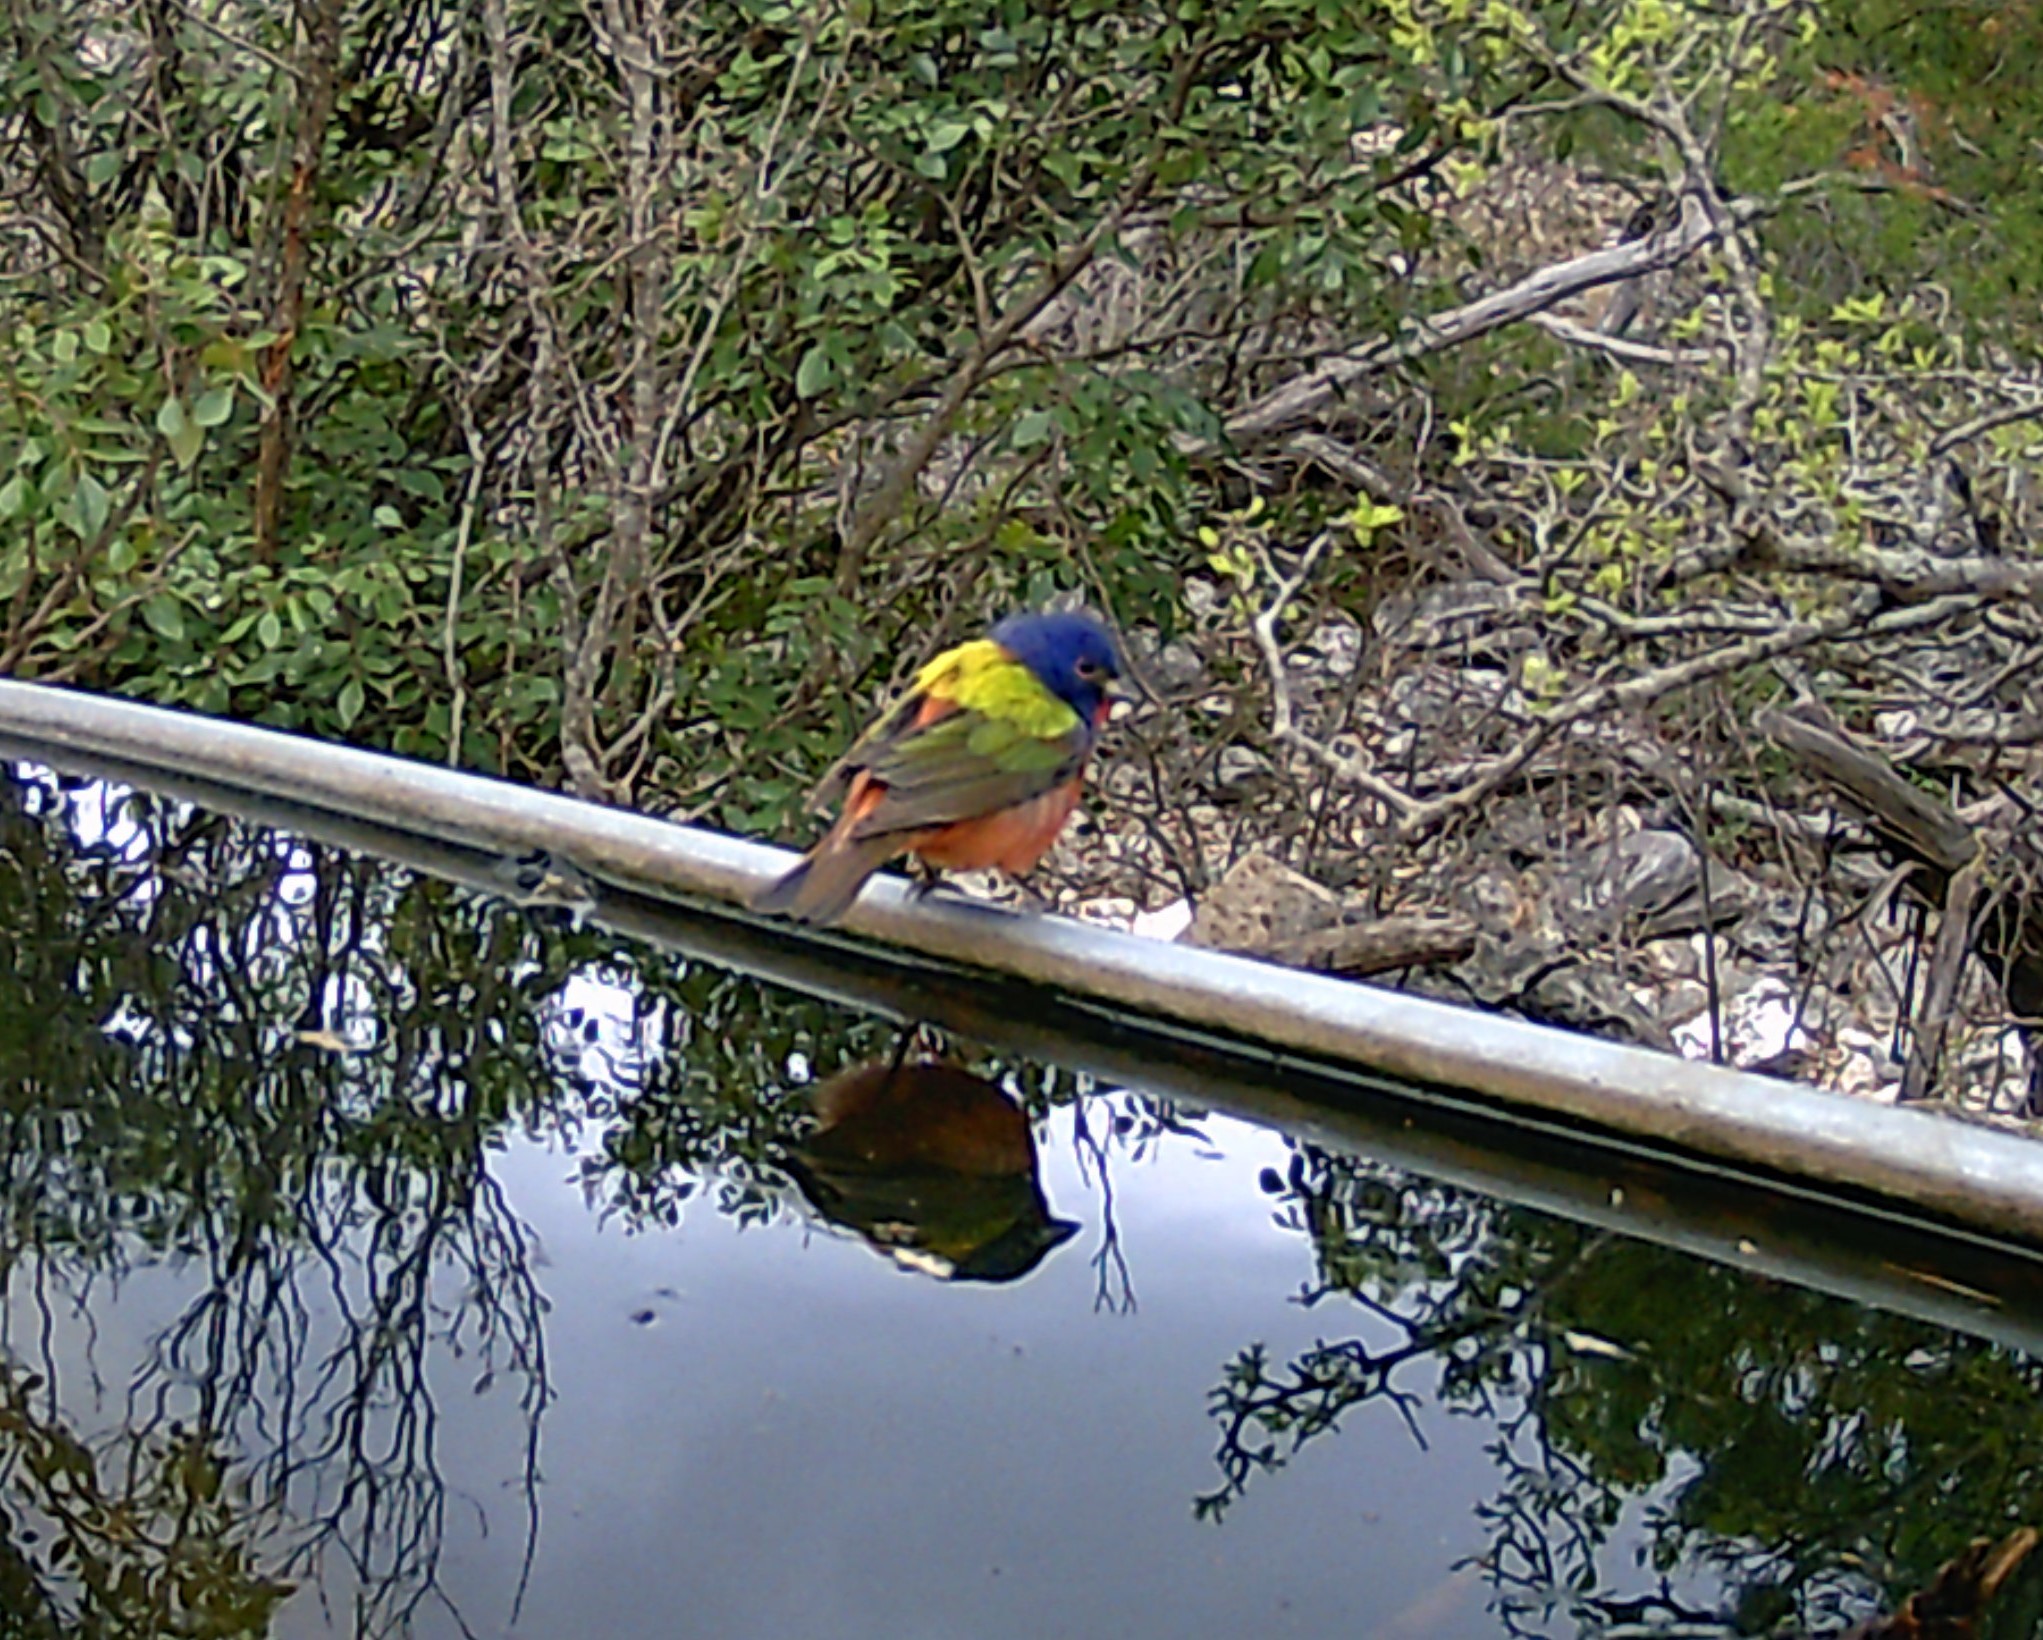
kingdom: Animalia
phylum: Chordata
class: Aves
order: Passeriformes
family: Cardinalidae
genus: Passerina
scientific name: Passerina ciris
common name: Painted bunting
